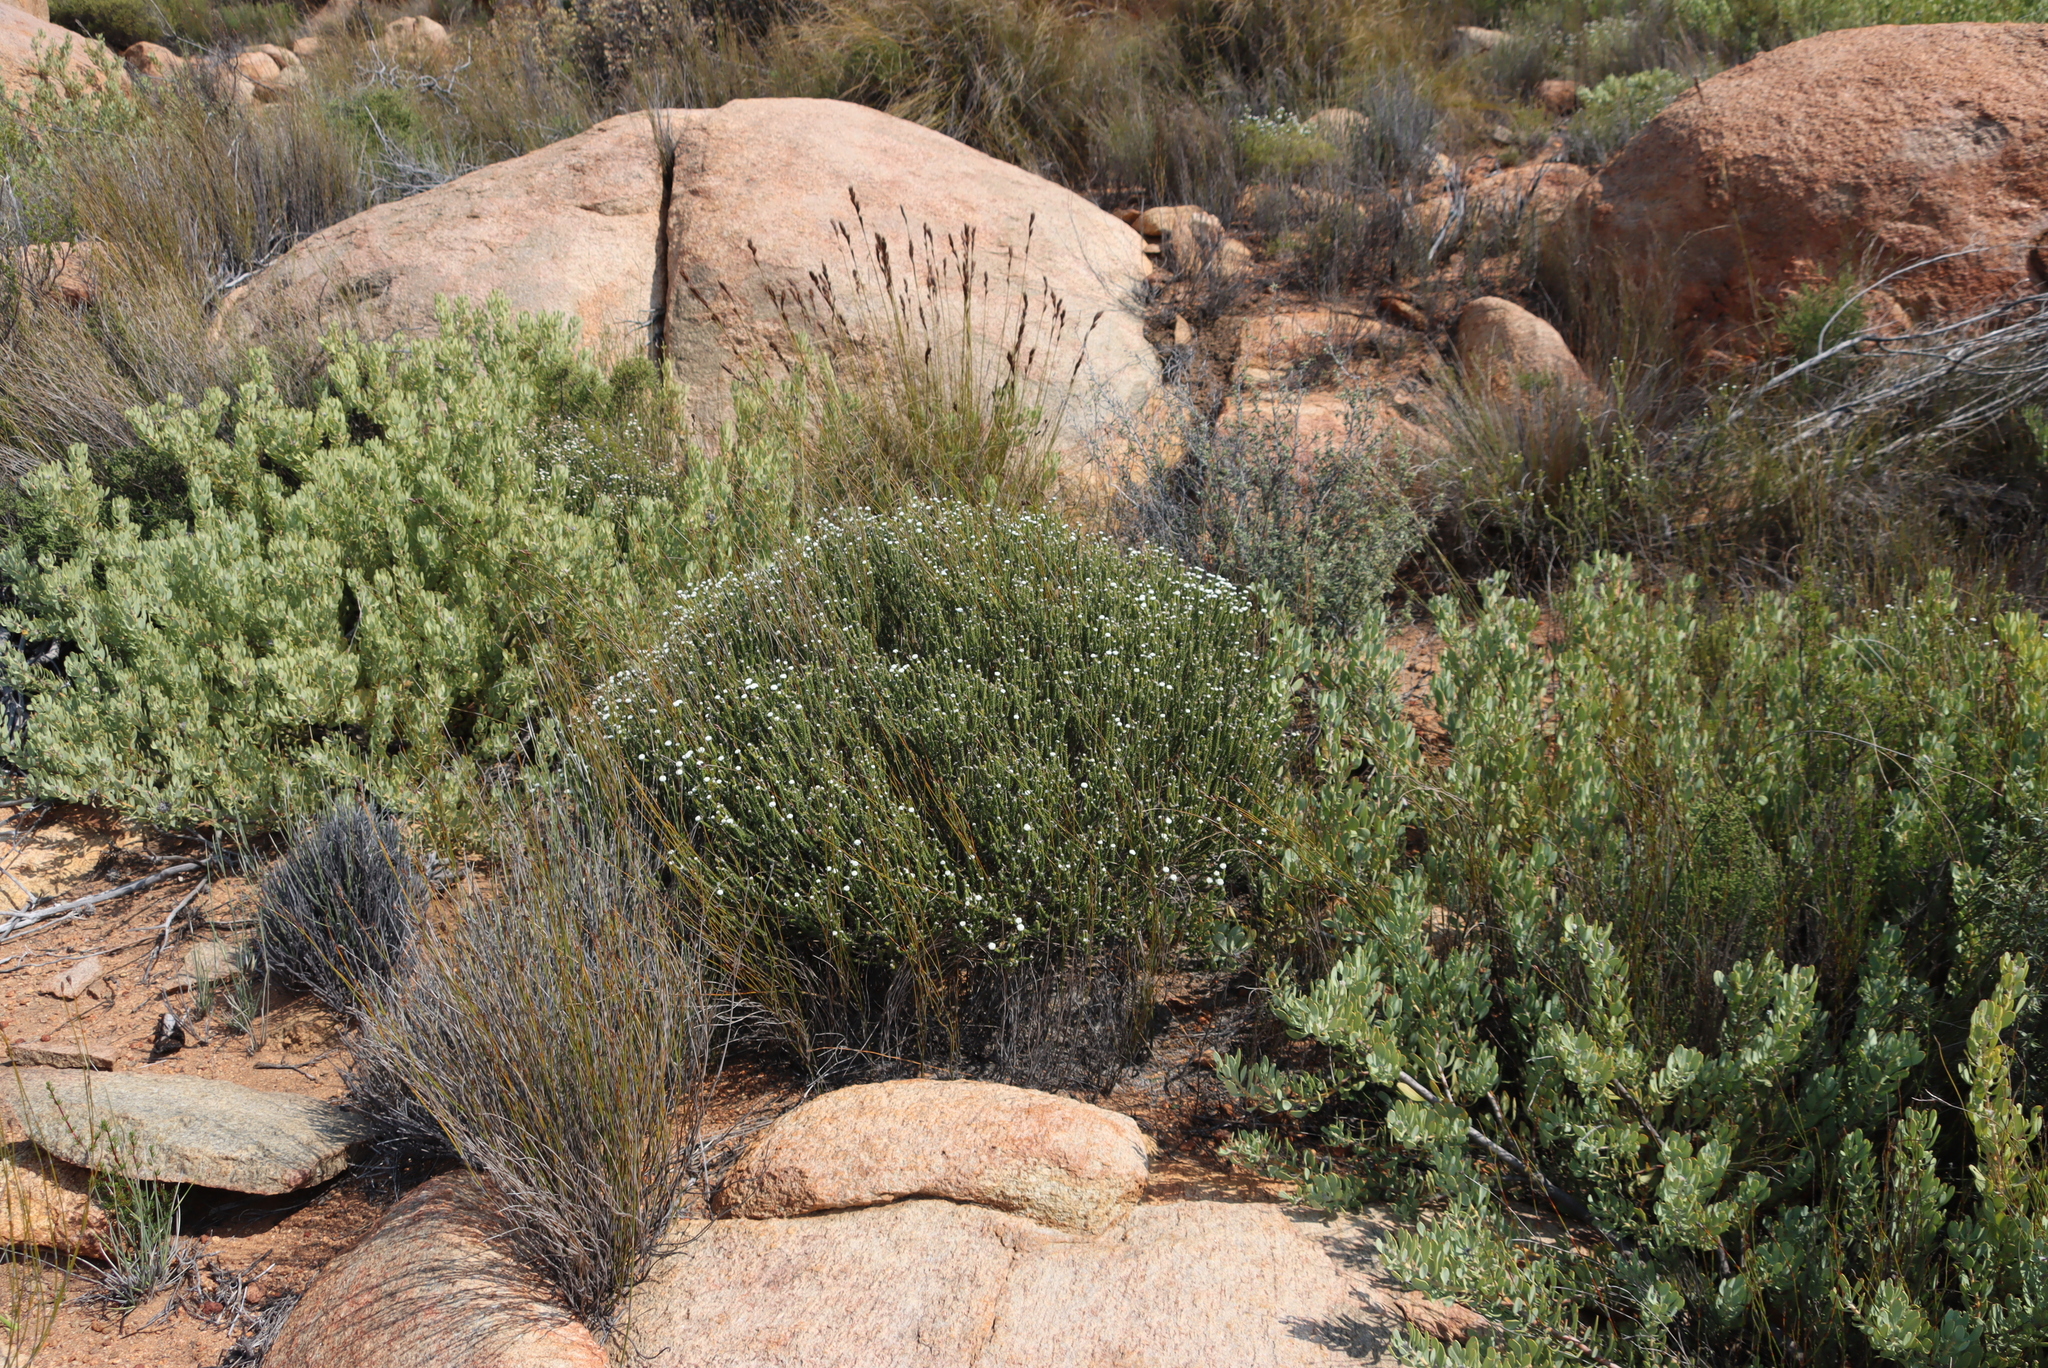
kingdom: Plantae
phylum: Tracheophyta
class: Magnoliopsida
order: Proteales
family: Proteaceae
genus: Vexatorella
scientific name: Vexatorella alpina
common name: Kamiesberg vexator
